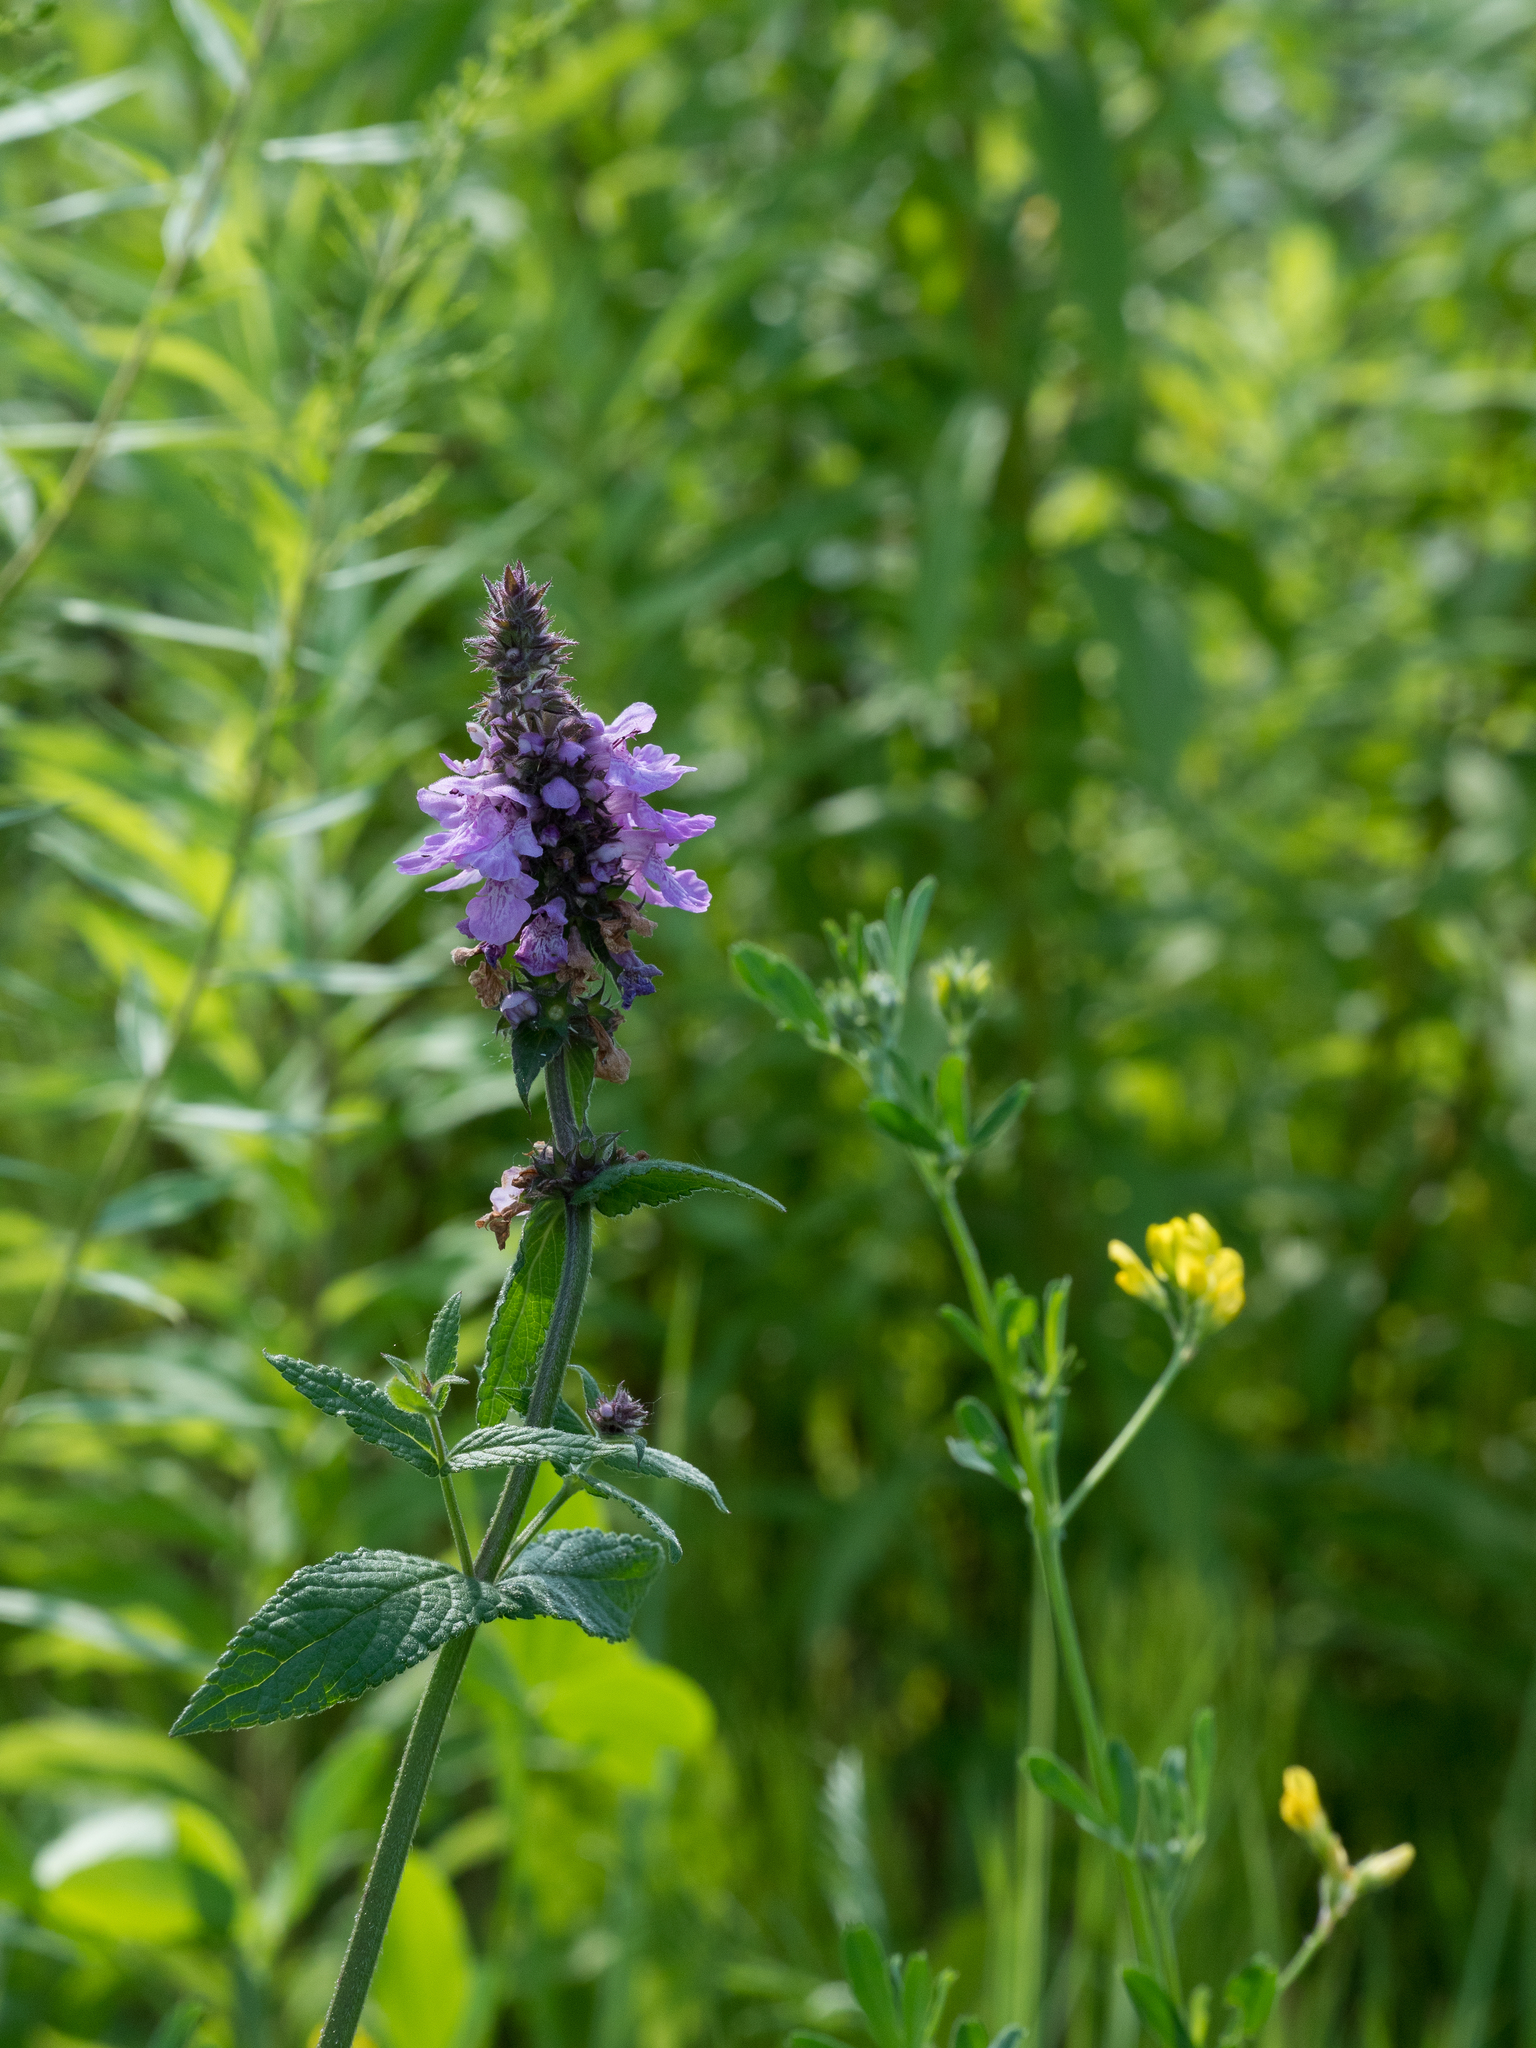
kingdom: Plantae
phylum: Tracheophyta
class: Magnoliopsida
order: Lamiales
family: Lamiaceae
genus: Stachys
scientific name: Stachys palustris
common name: Marsh woundwort
